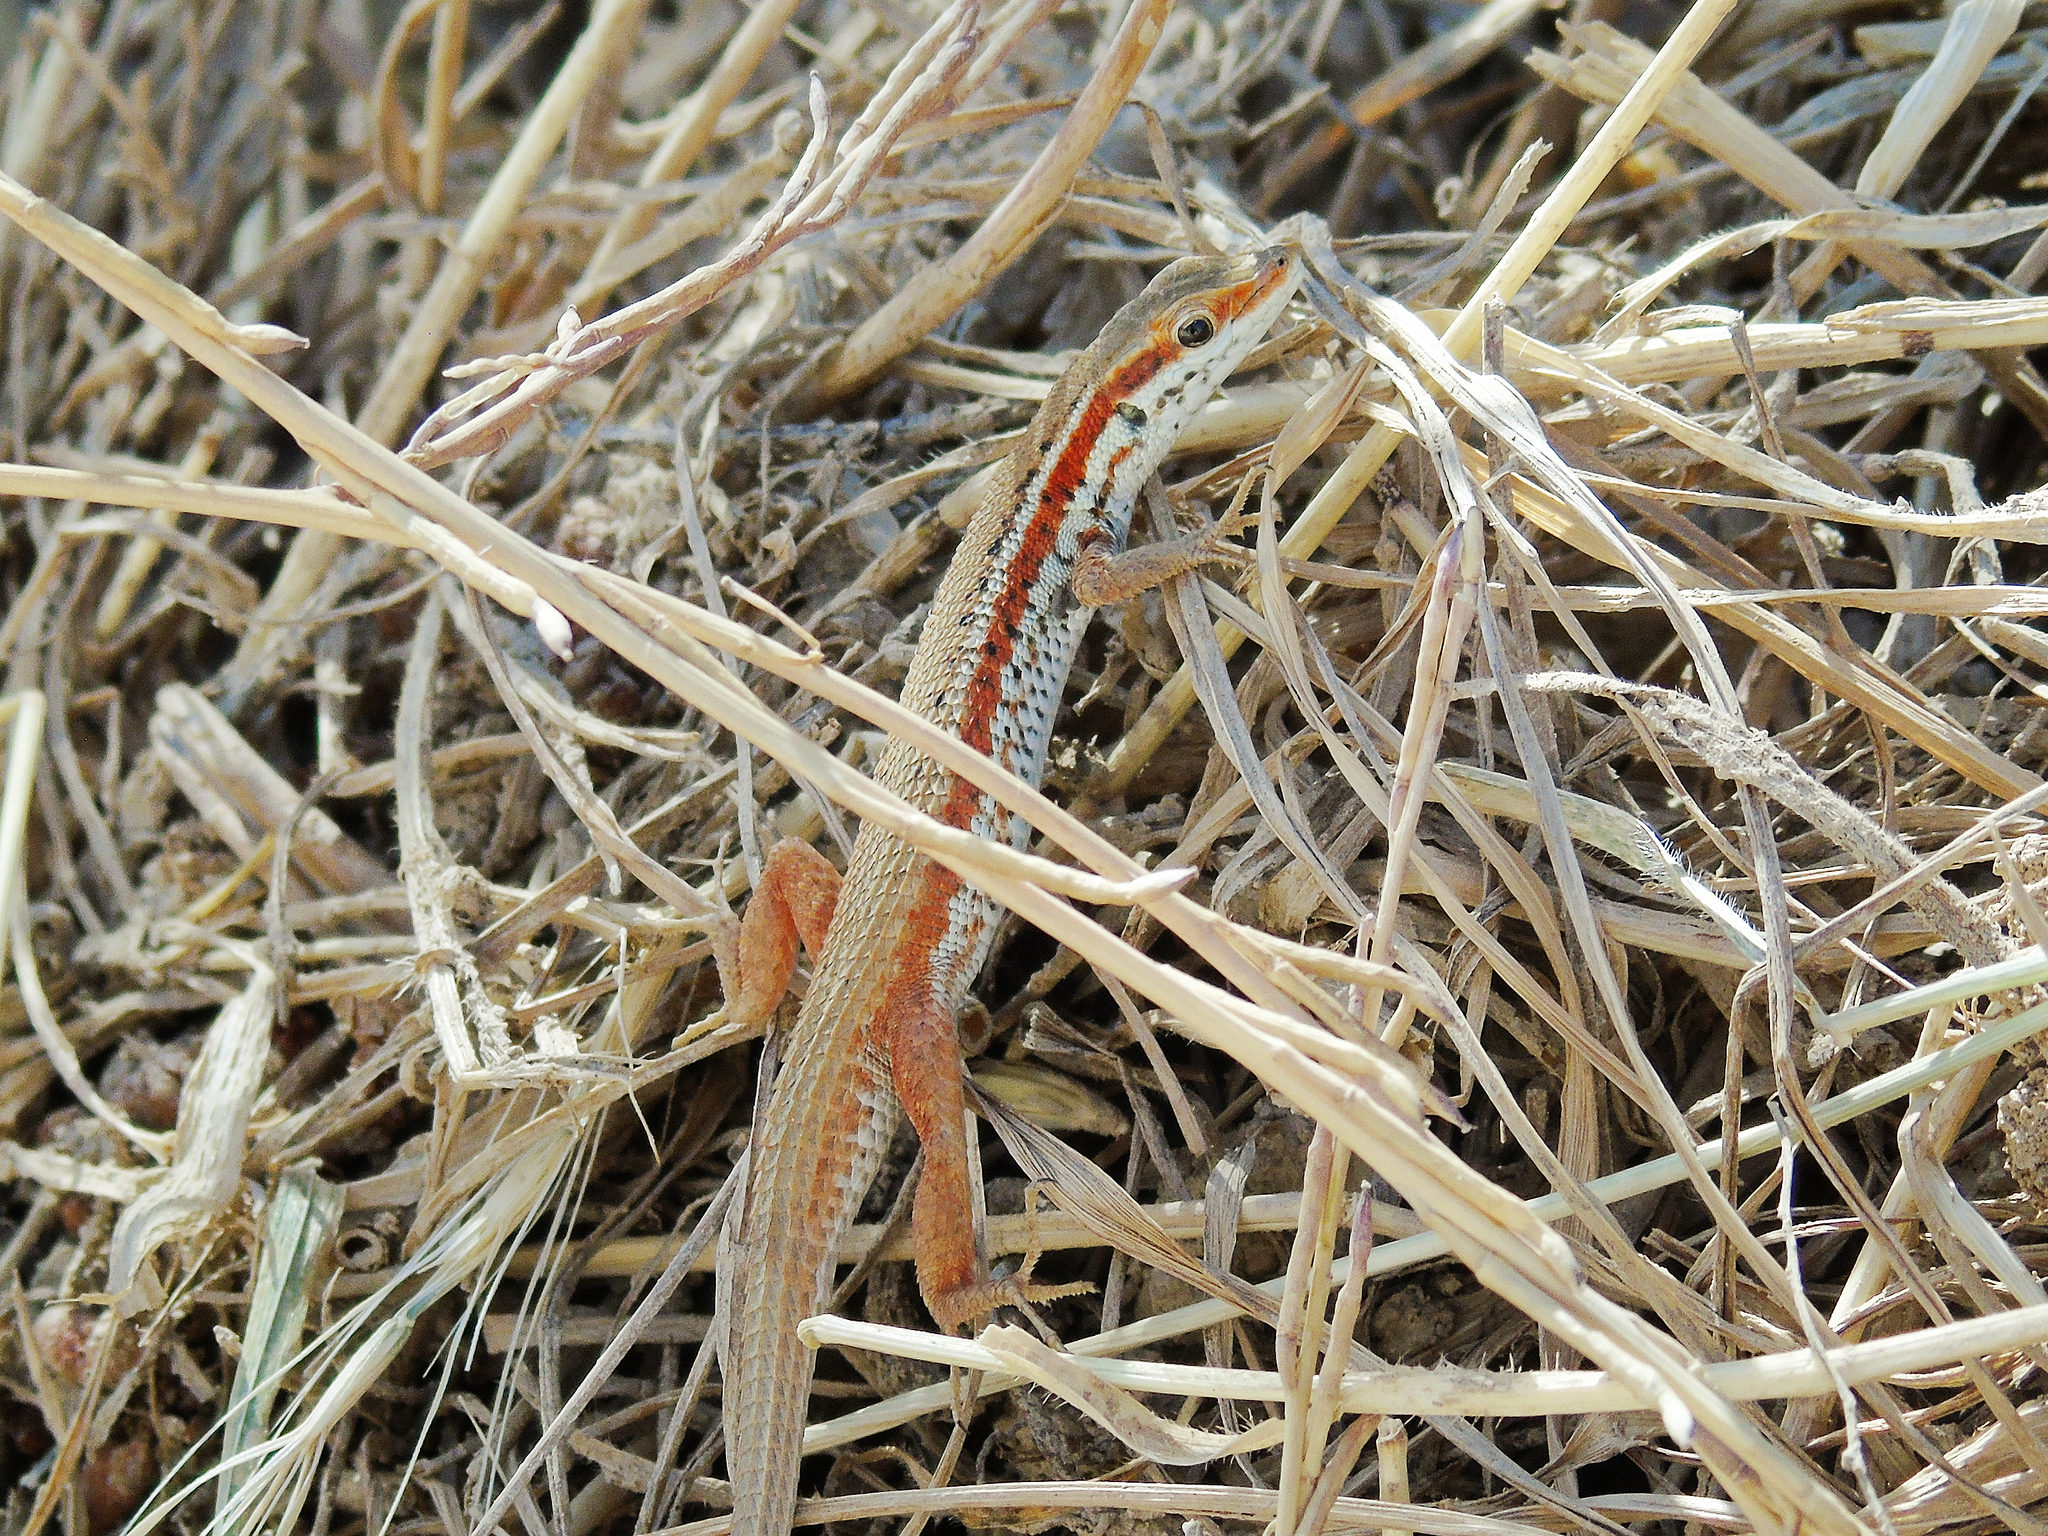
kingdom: Animalia
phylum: Chordata
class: Squamata
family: Lacertidae
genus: Ophisops
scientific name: Ophisops elegans
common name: Snake-eyed lizard
